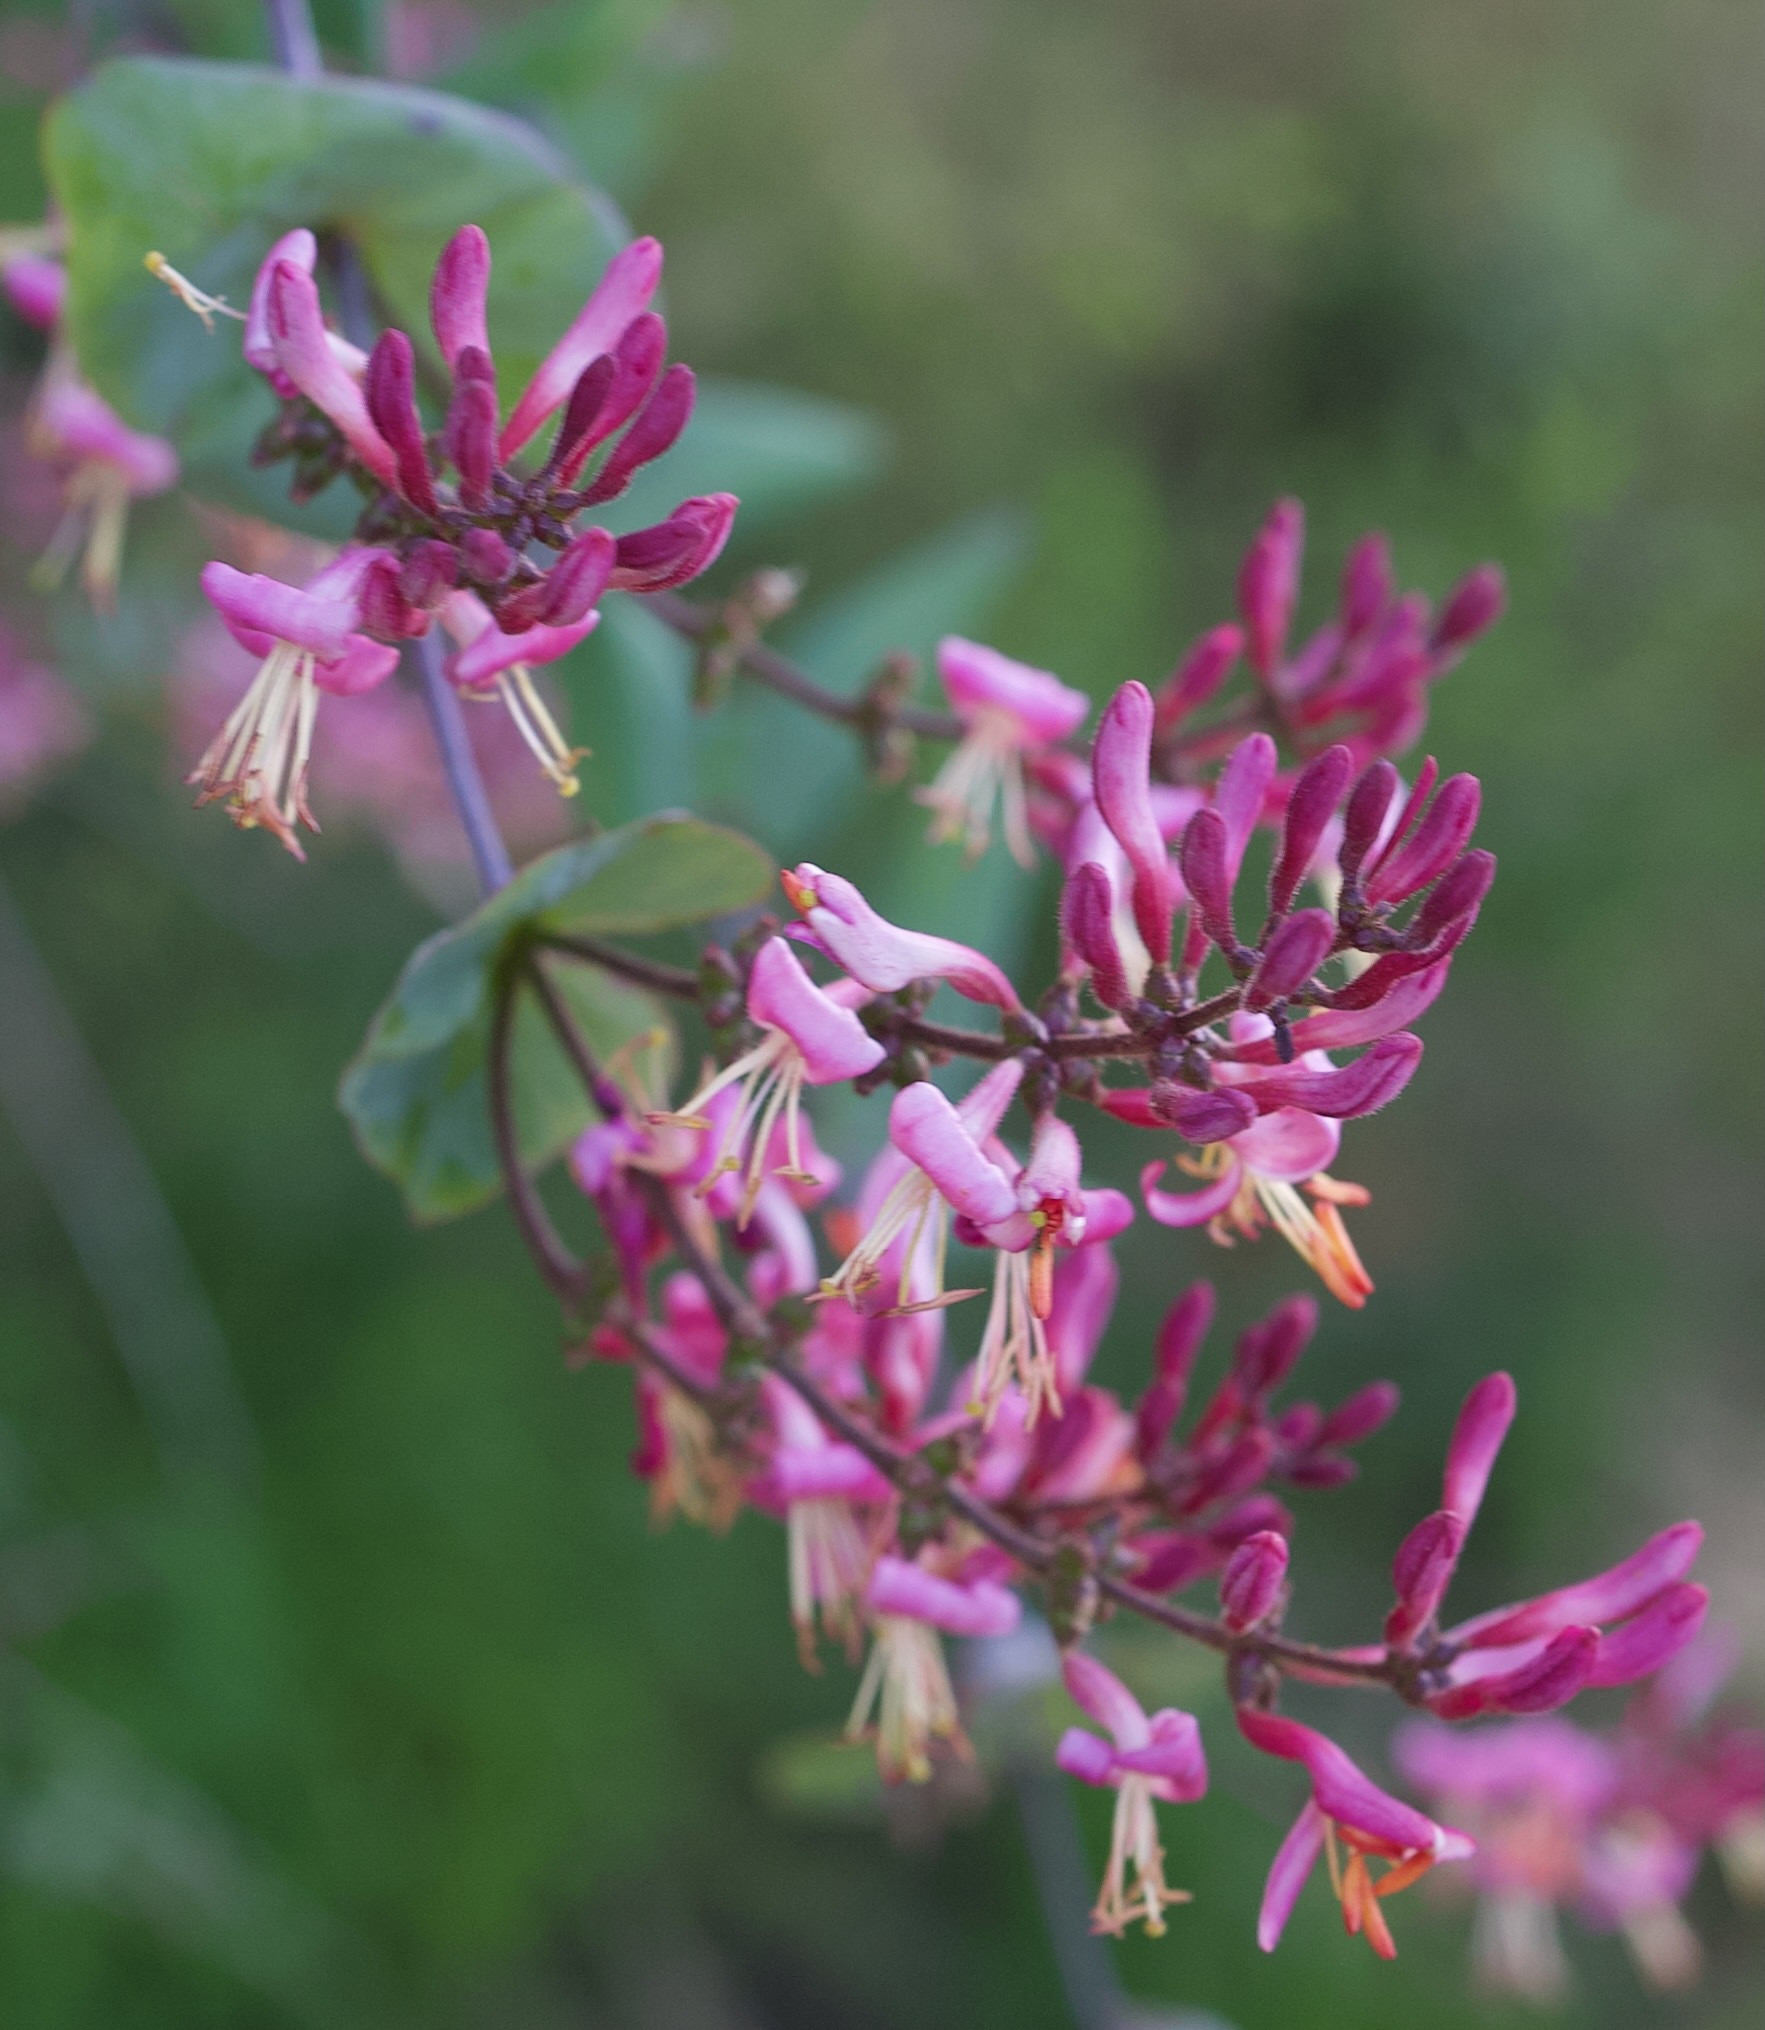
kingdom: Plantae
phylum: Tracheophyta
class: Magnoliopsida
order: Dipsacales
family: Caprifoliaceae
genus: Lonicera
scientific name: Lonicera hispidula
